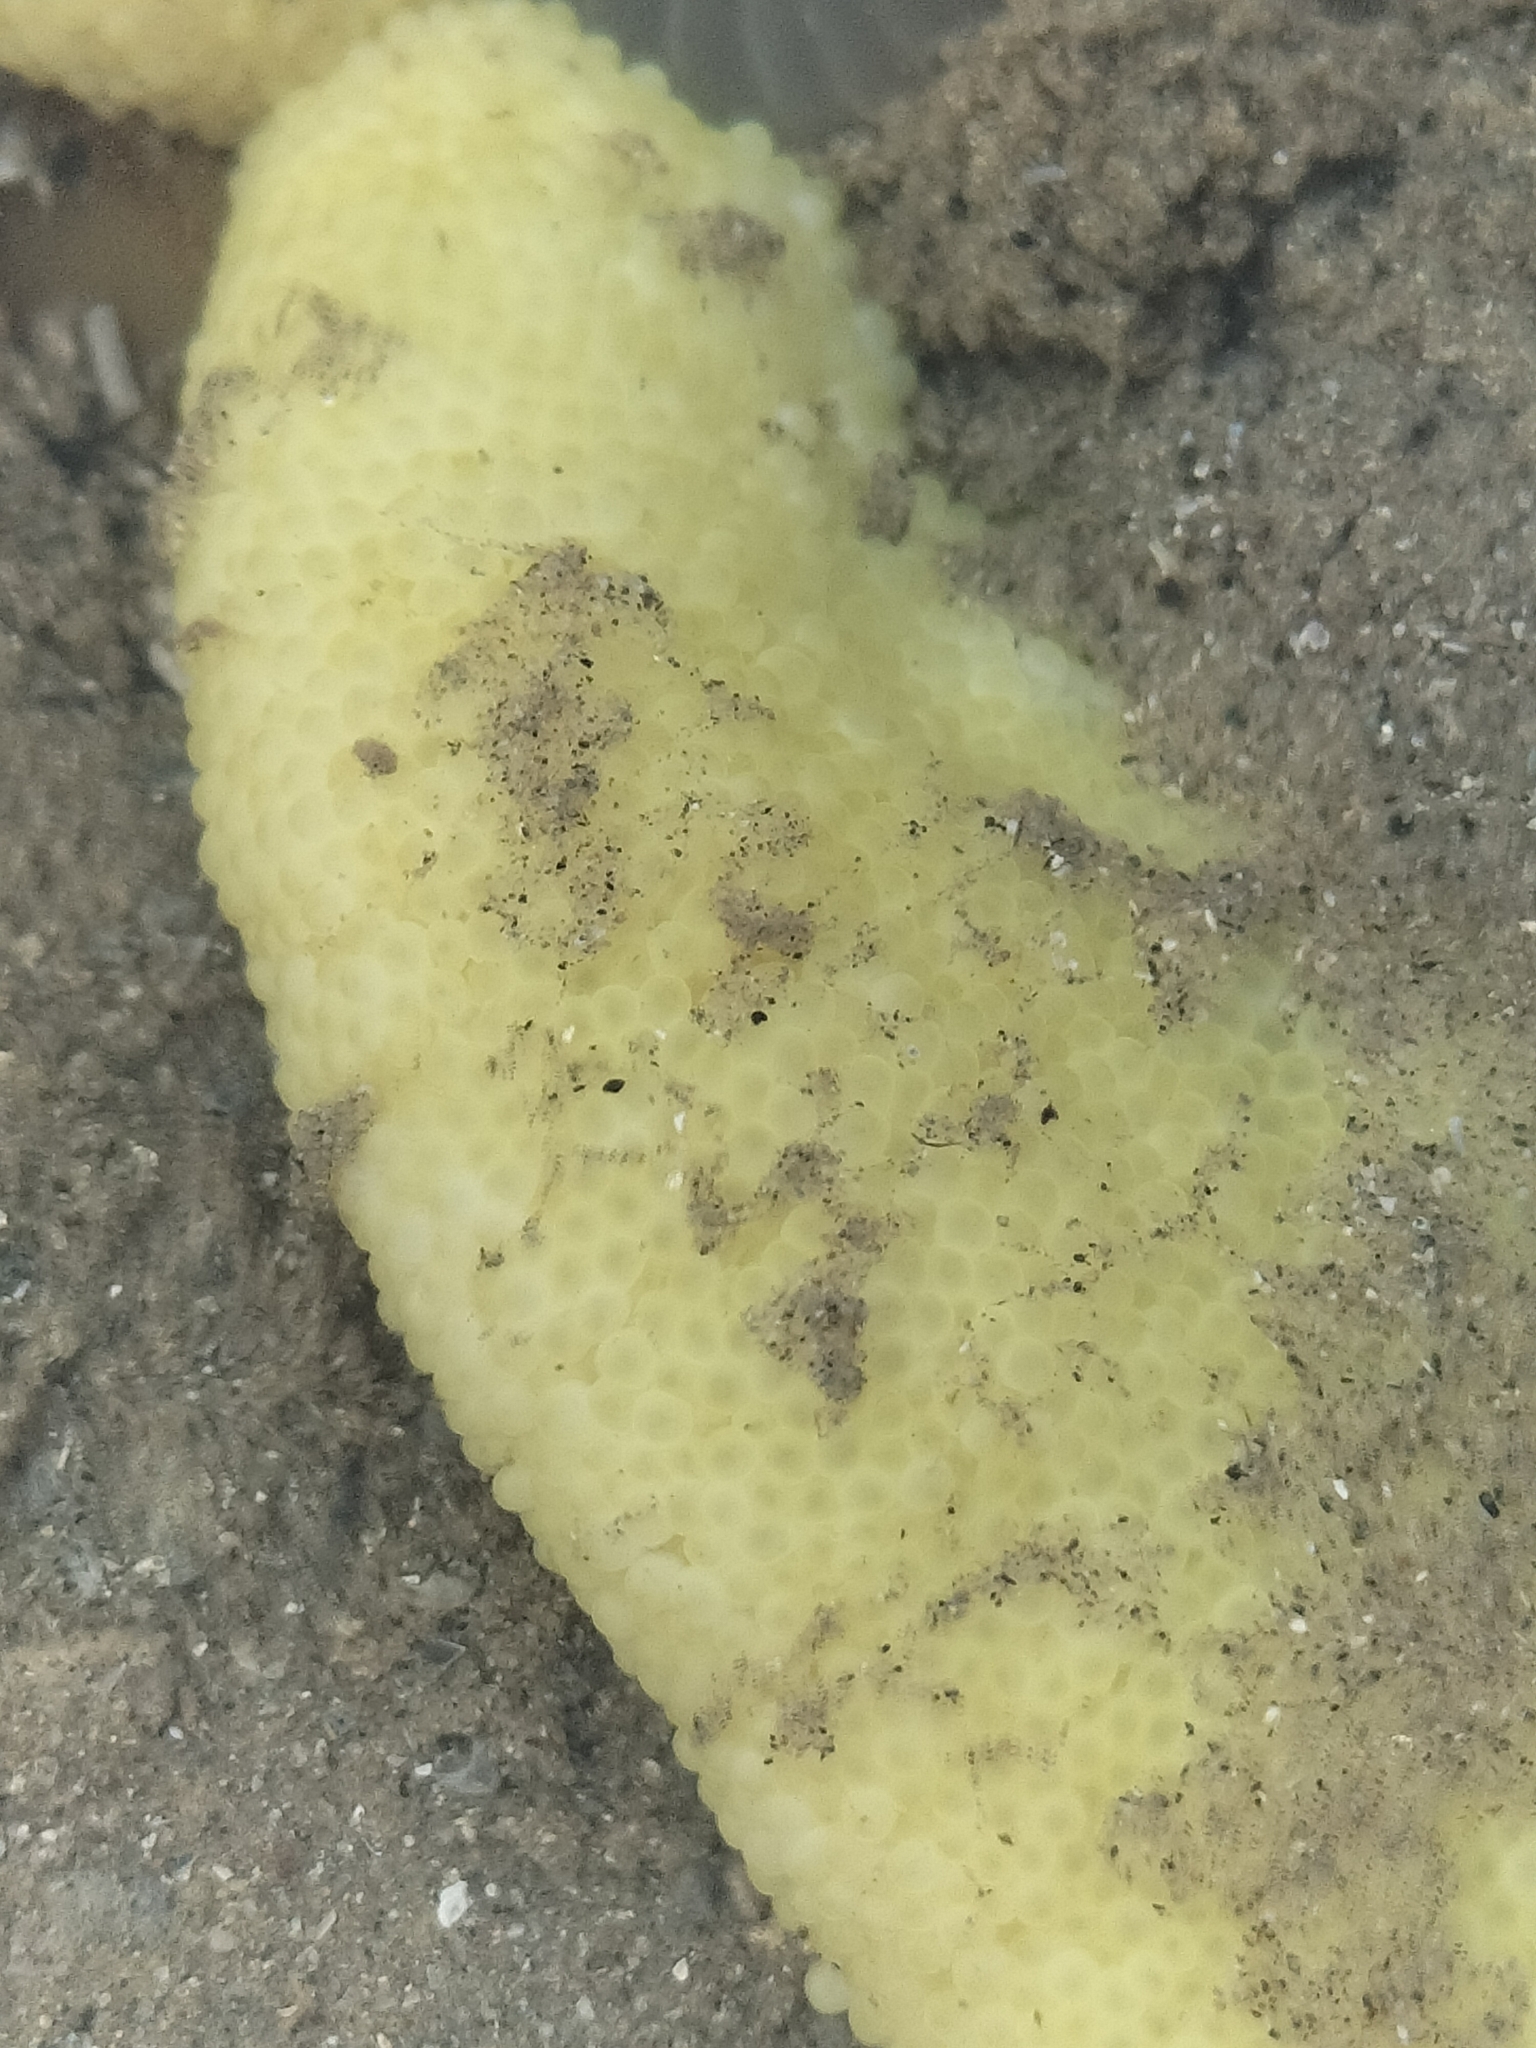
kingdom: Animalia
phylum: Cnidaria
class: Anthozoa
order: Actiniaria
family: Stichodactylidae
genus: Stichodactyla
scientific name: Stichodactyla haddoni
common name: Haddon's sea anemone
